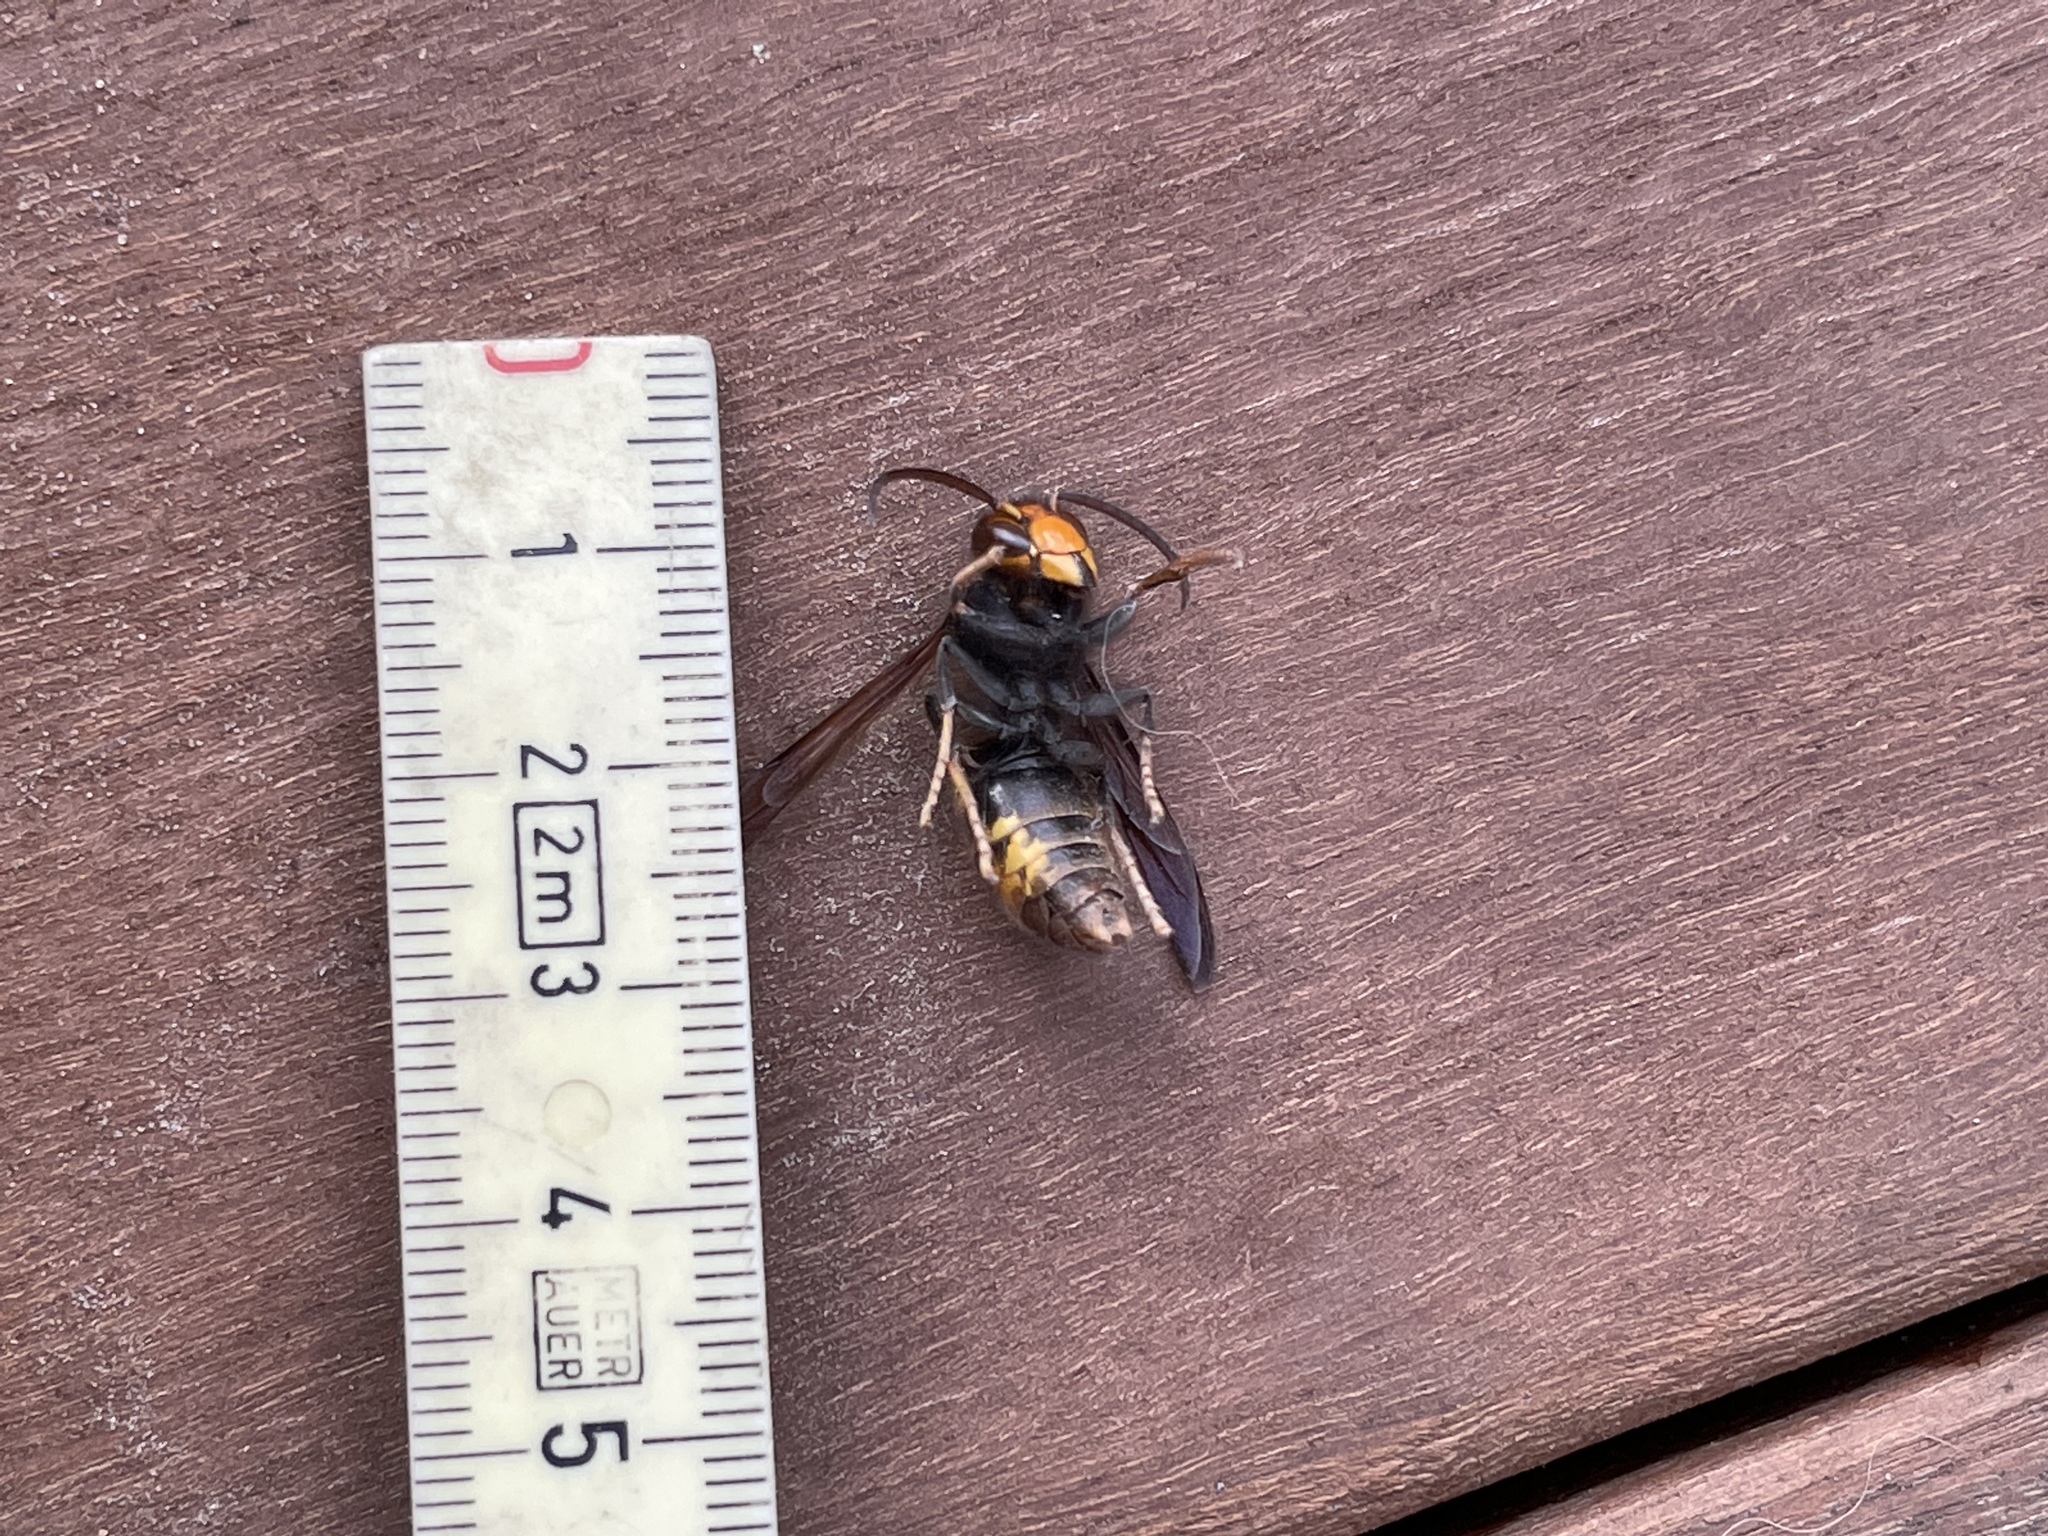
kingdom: Animalia
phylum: Arthropoda
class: Insecta
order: Hymenoptera
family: Vespidae
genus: Vespa
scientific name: Vespa velutina
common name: Asian hornet
